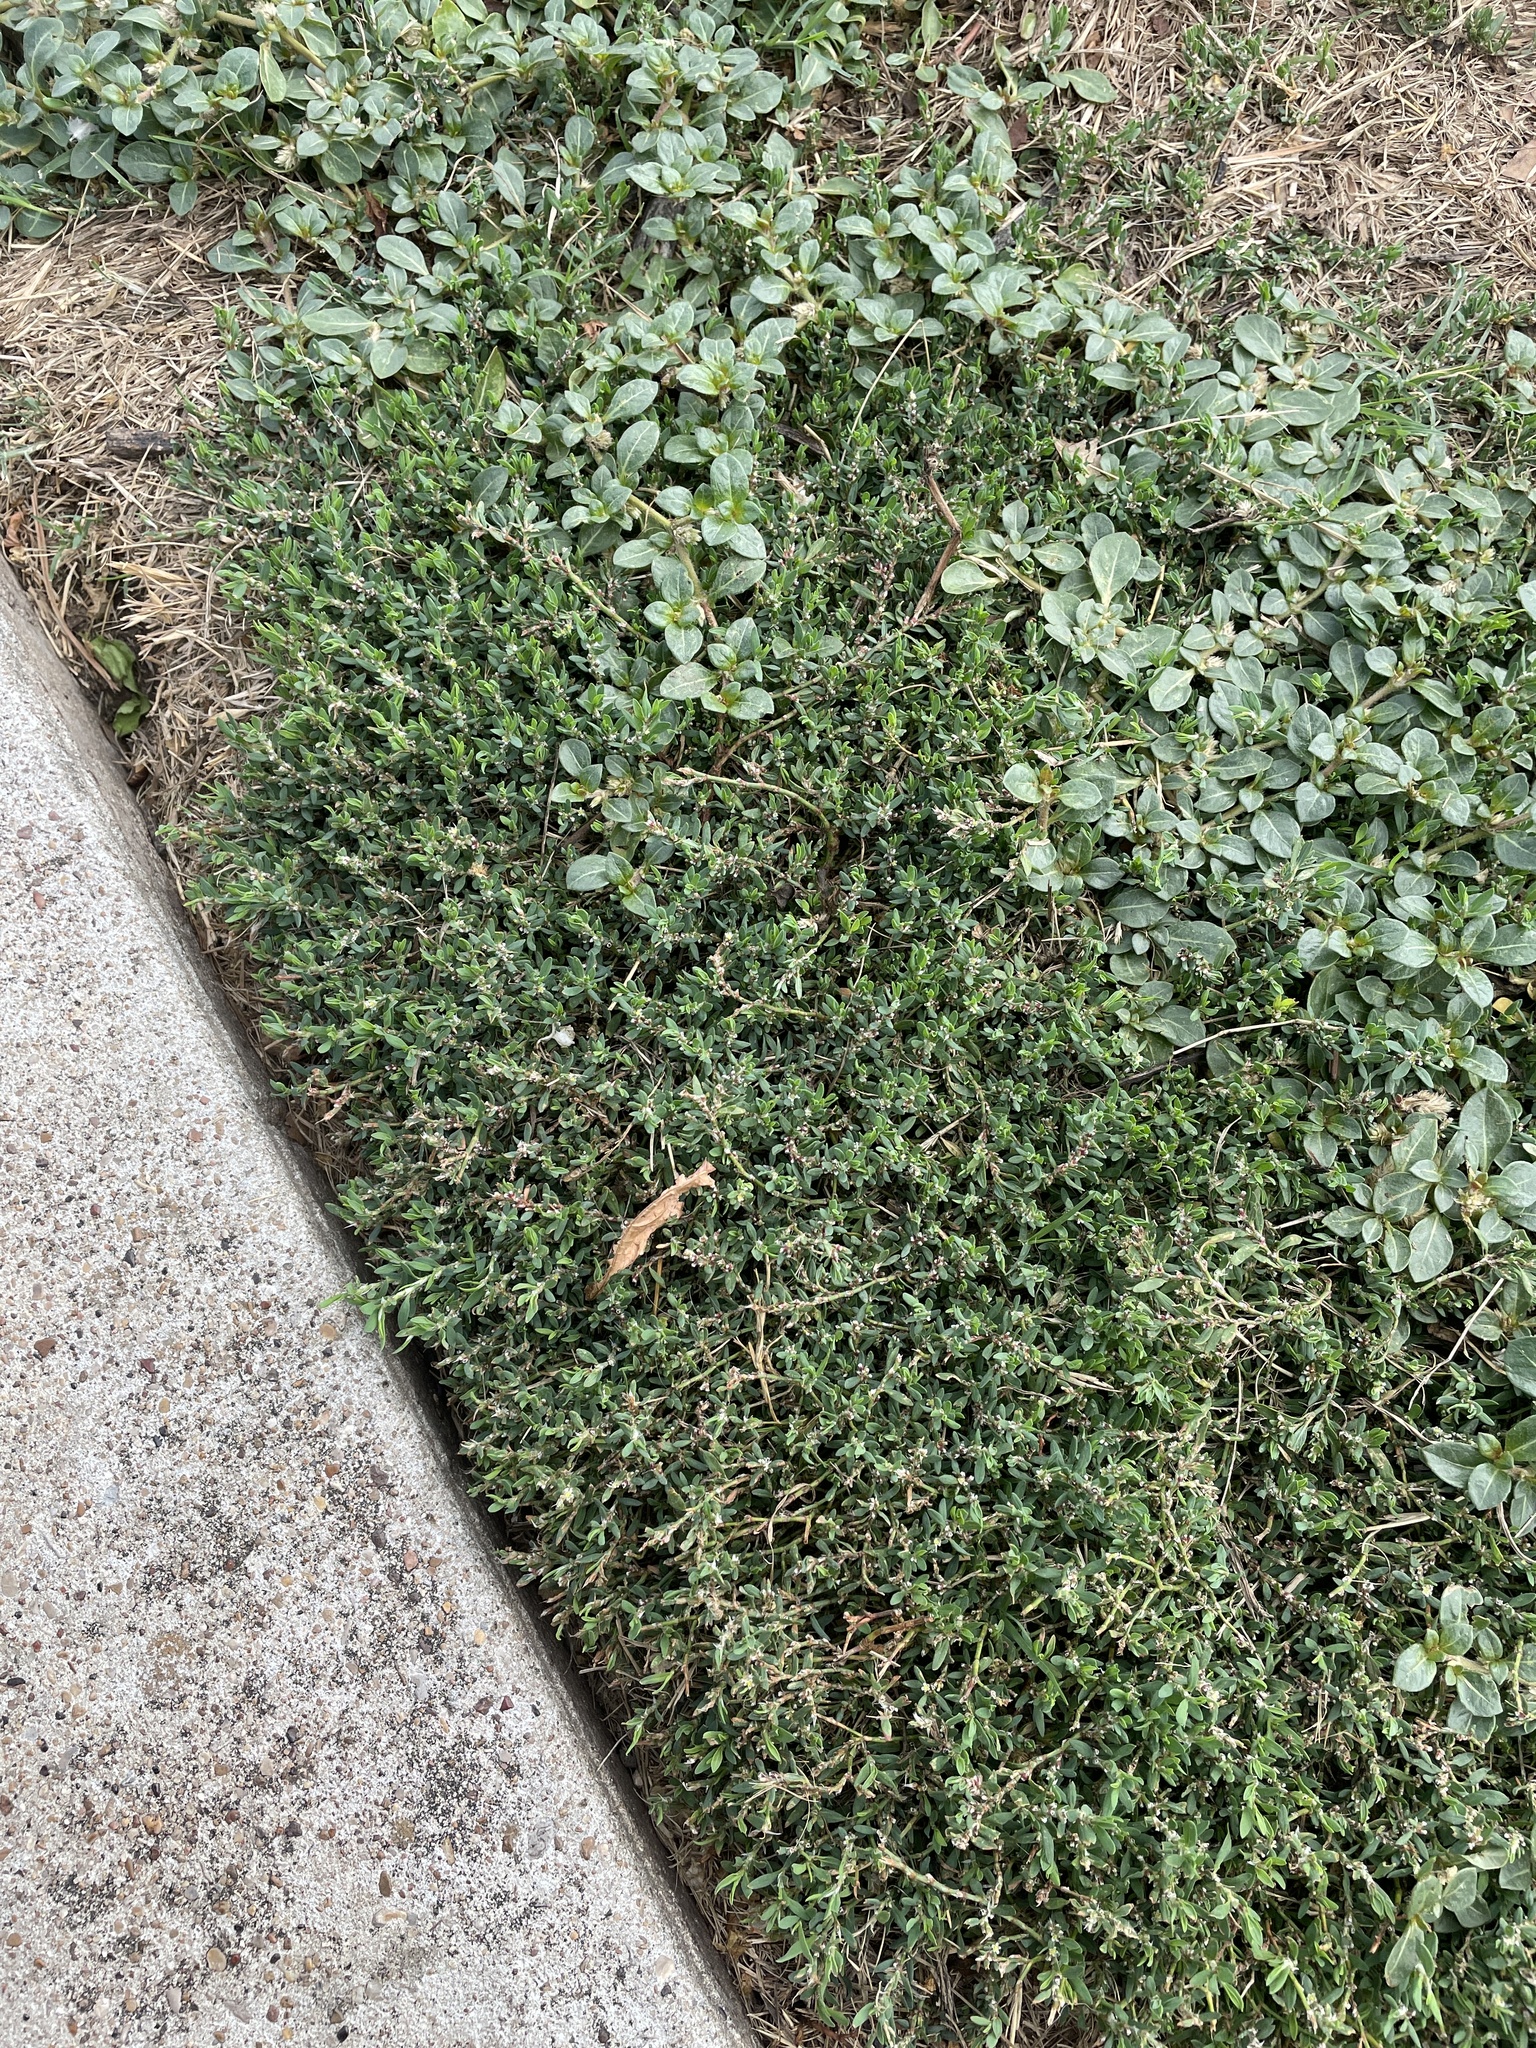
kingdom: Plantae
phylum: Tracheophyta
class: Magnoliopsida
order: Caryophyllales
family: Polygonaceae
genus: Polygonum
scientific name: Polygonum aviculare
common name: Prostrate knotweed
